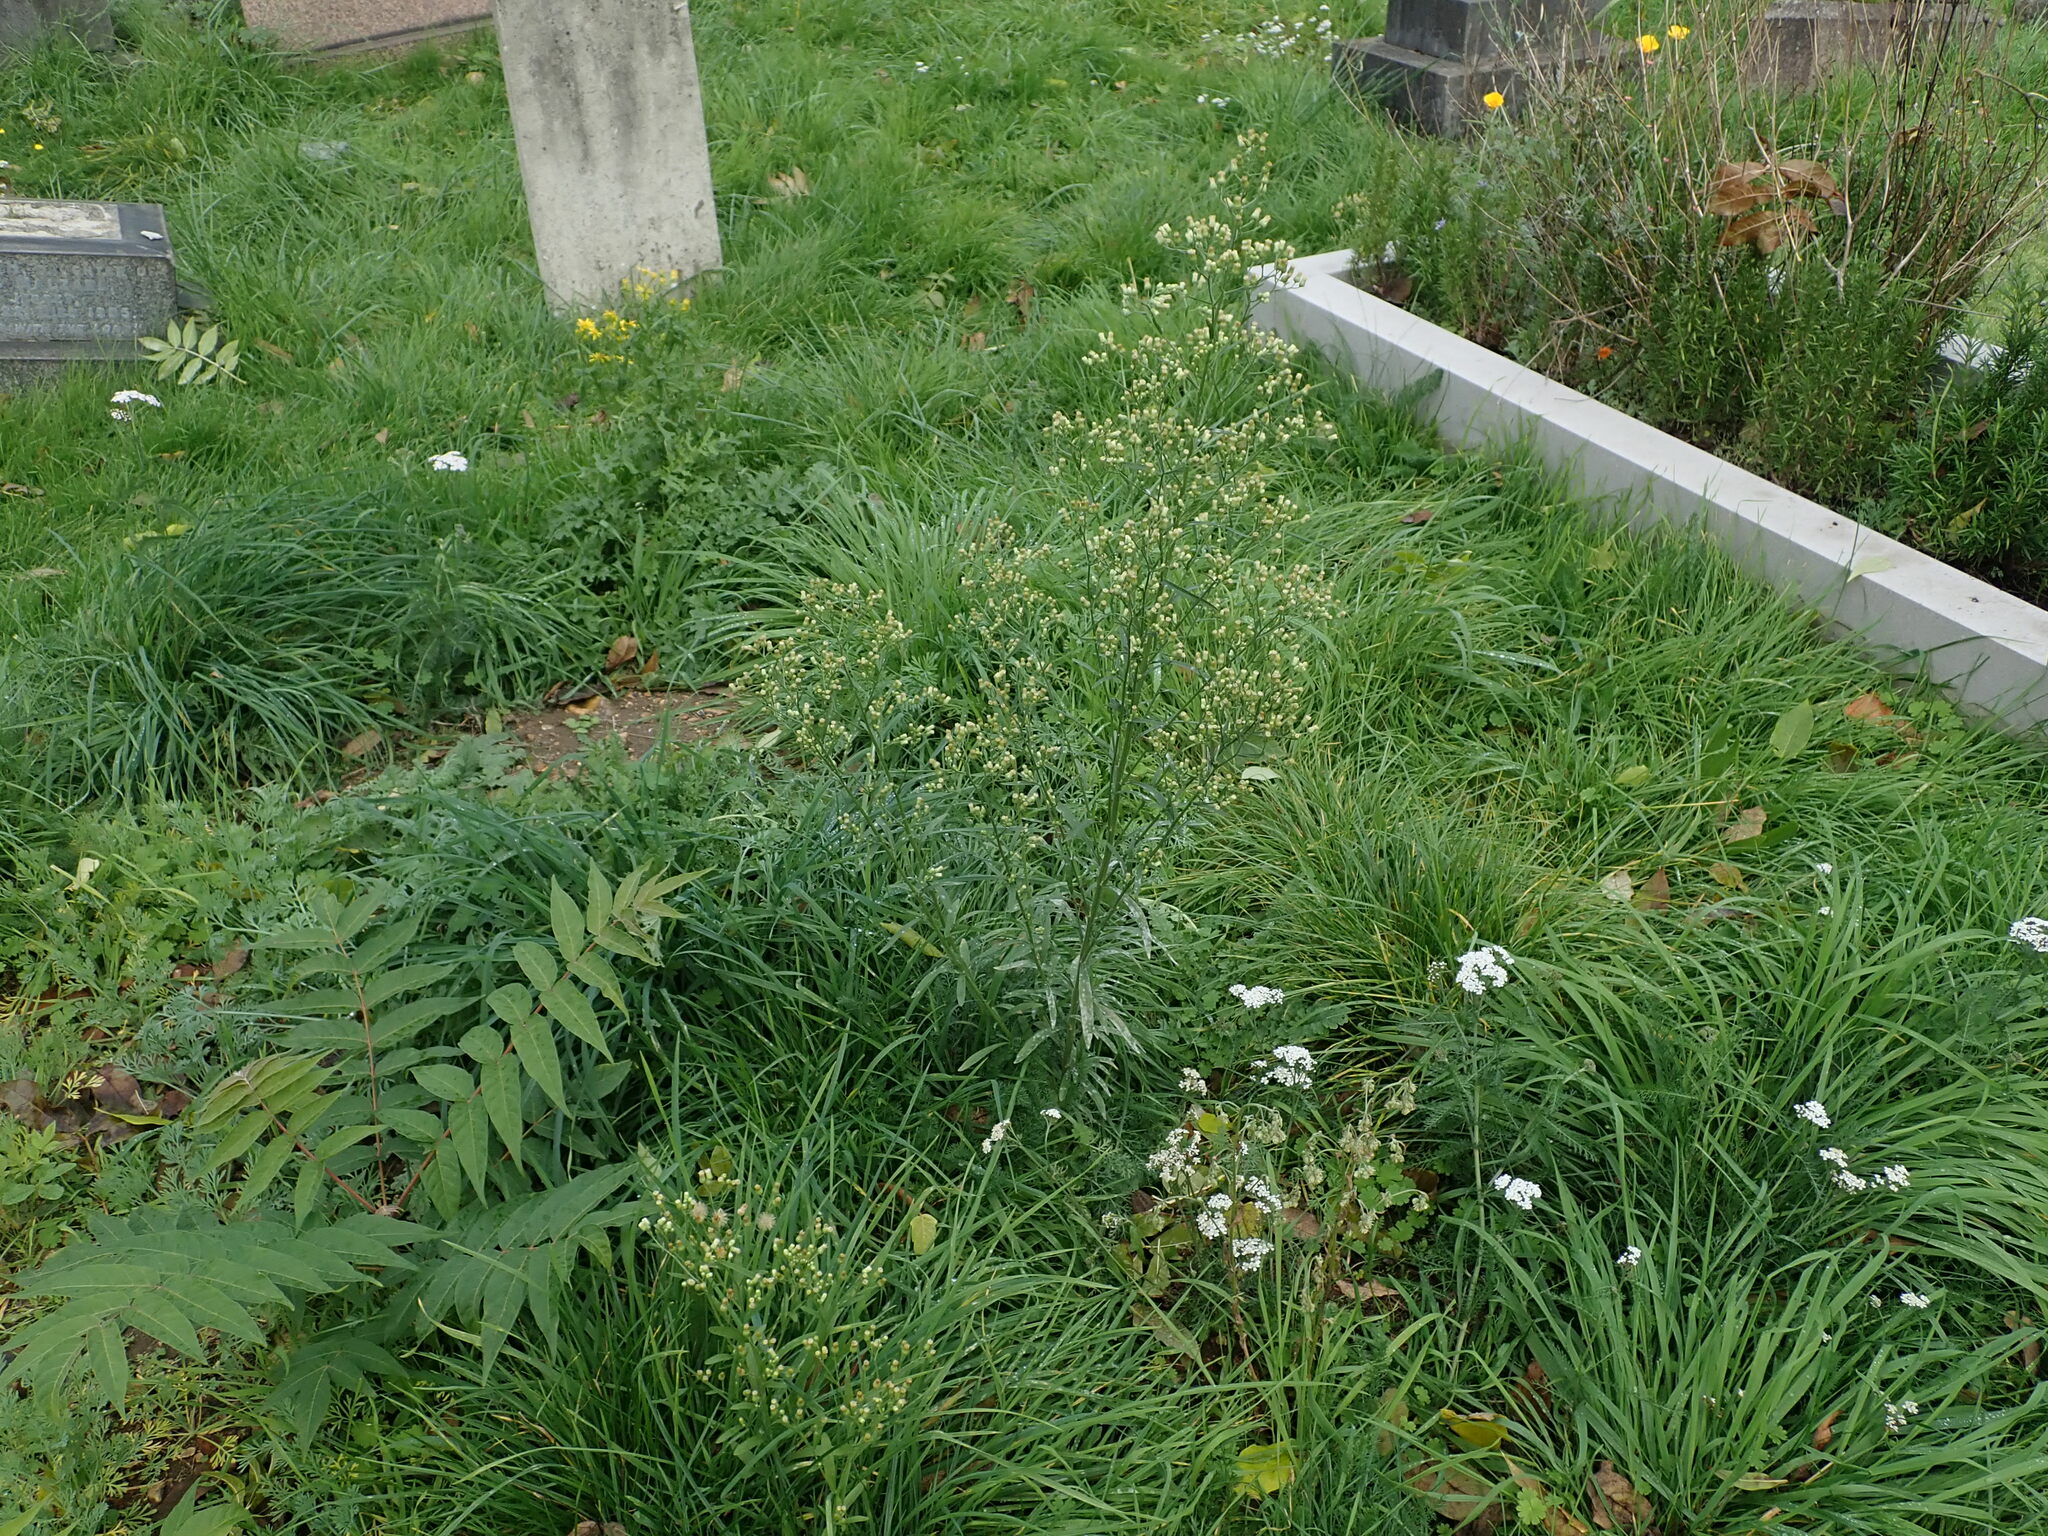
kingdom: Plantae
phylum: Tracheophyta
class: Magnoliopsida
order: Asterales
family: Asteraceae
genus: Erigeron
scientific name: Erigeron sumatrensis
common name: Daisy
